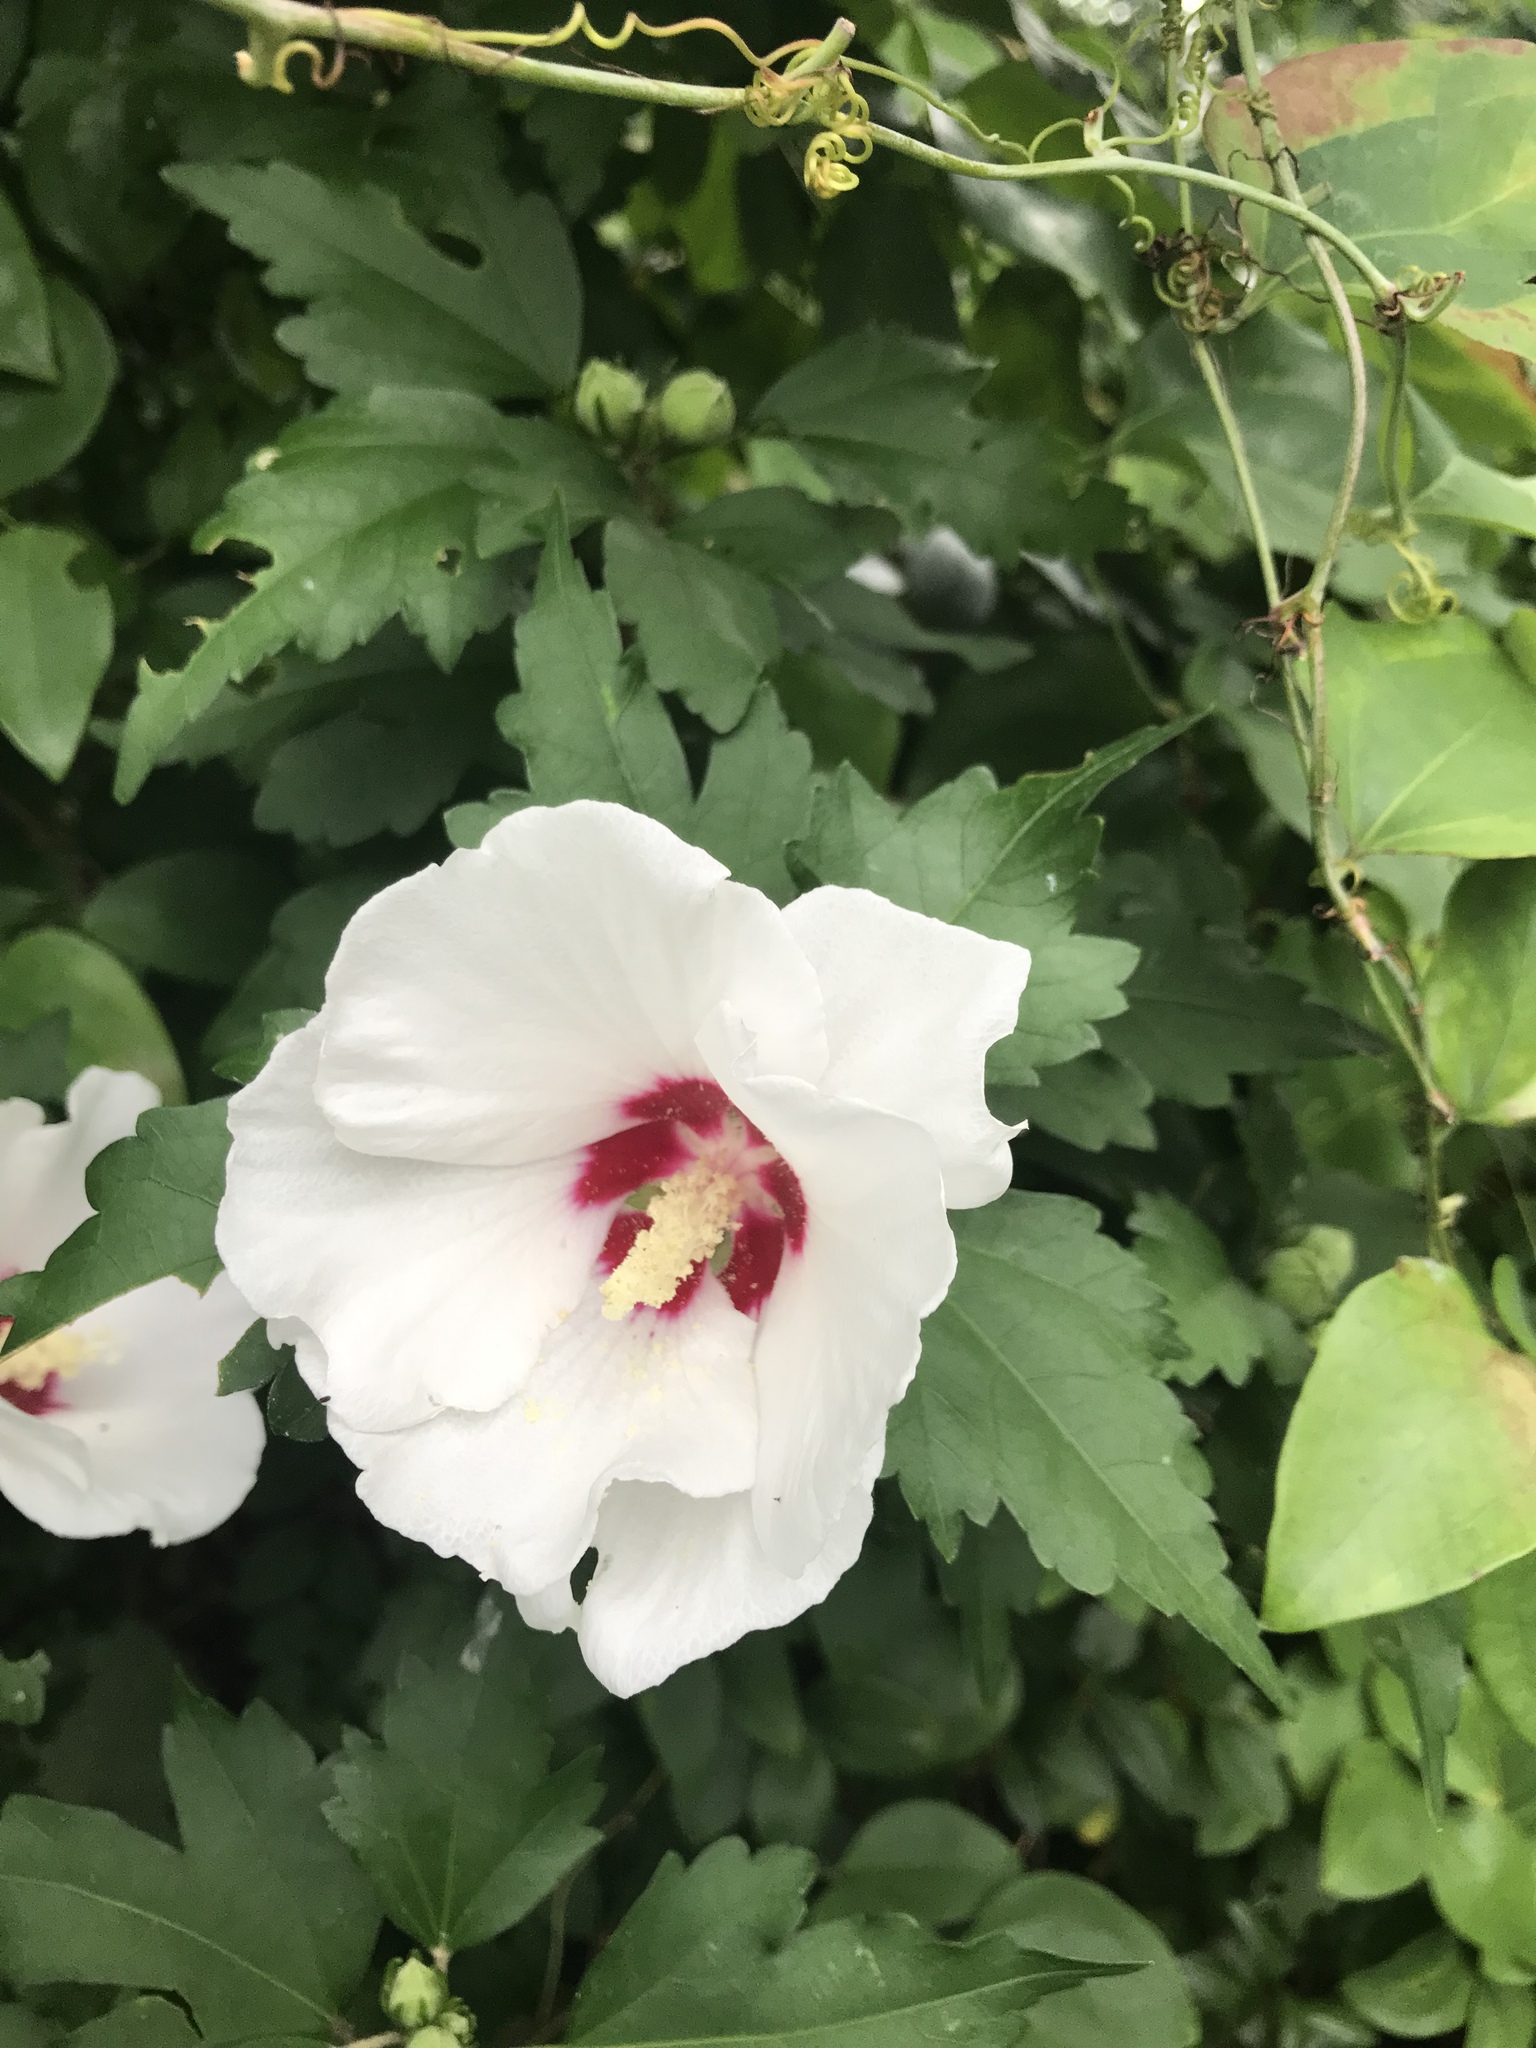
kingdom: Plantae
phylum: Tracheophyta
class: Magnoliopsida
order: Malvales
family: Malvaceae
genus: Hibiscus
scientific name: Hibiscus syriacus
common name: Syrian ketmia
